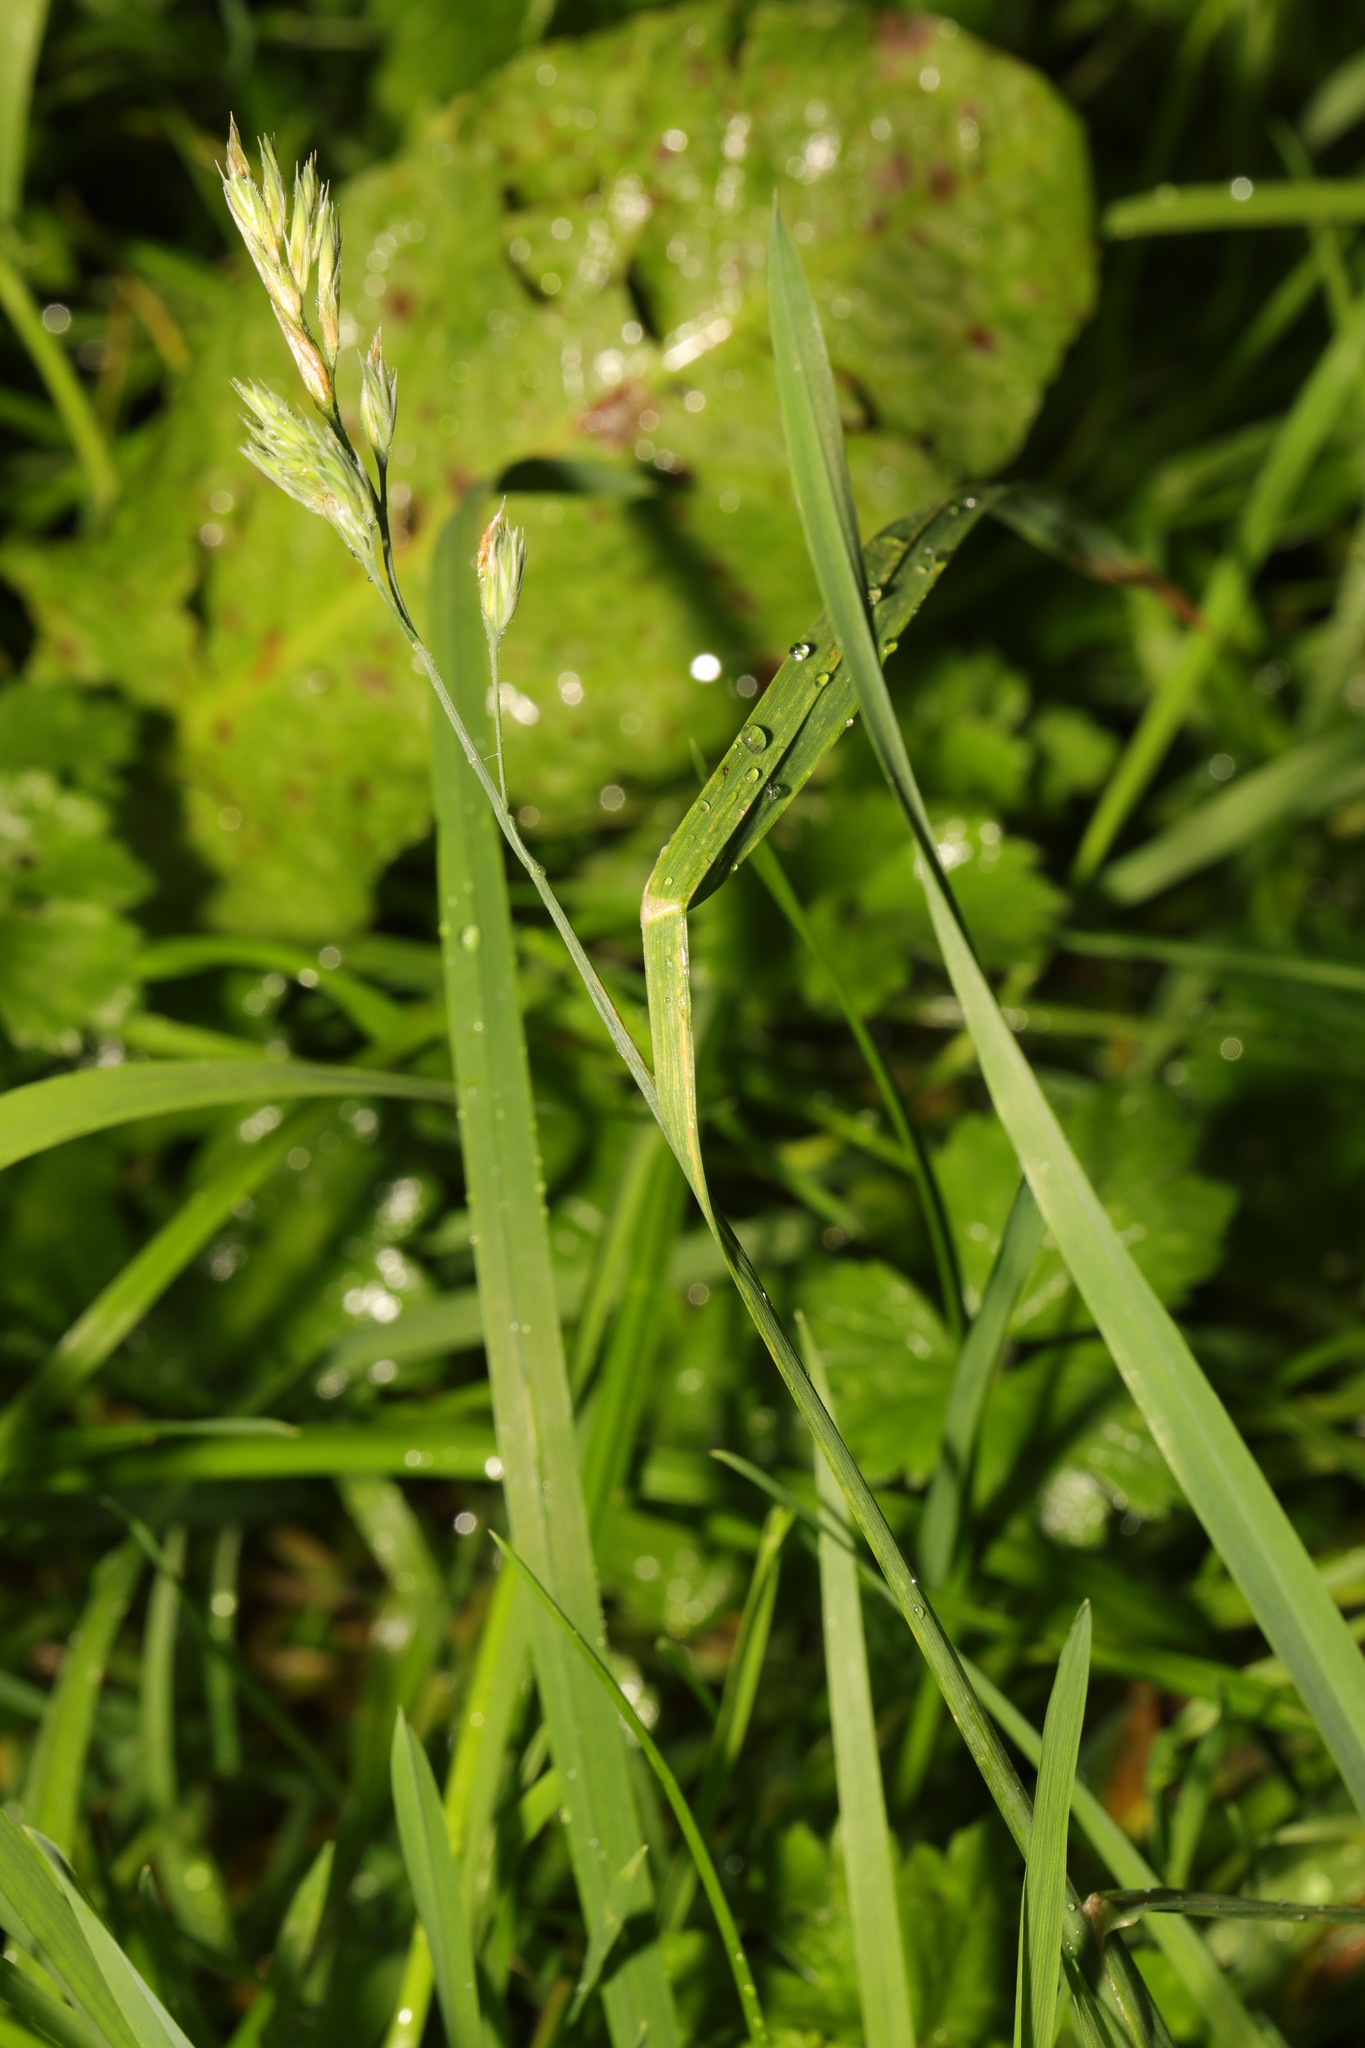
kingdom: Plantae
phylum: Tracheophyta
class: Liliopsida
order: Poales
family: Poaceae
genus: Dactylis
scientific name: Dactylis glomerata
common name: Orchardgrass
